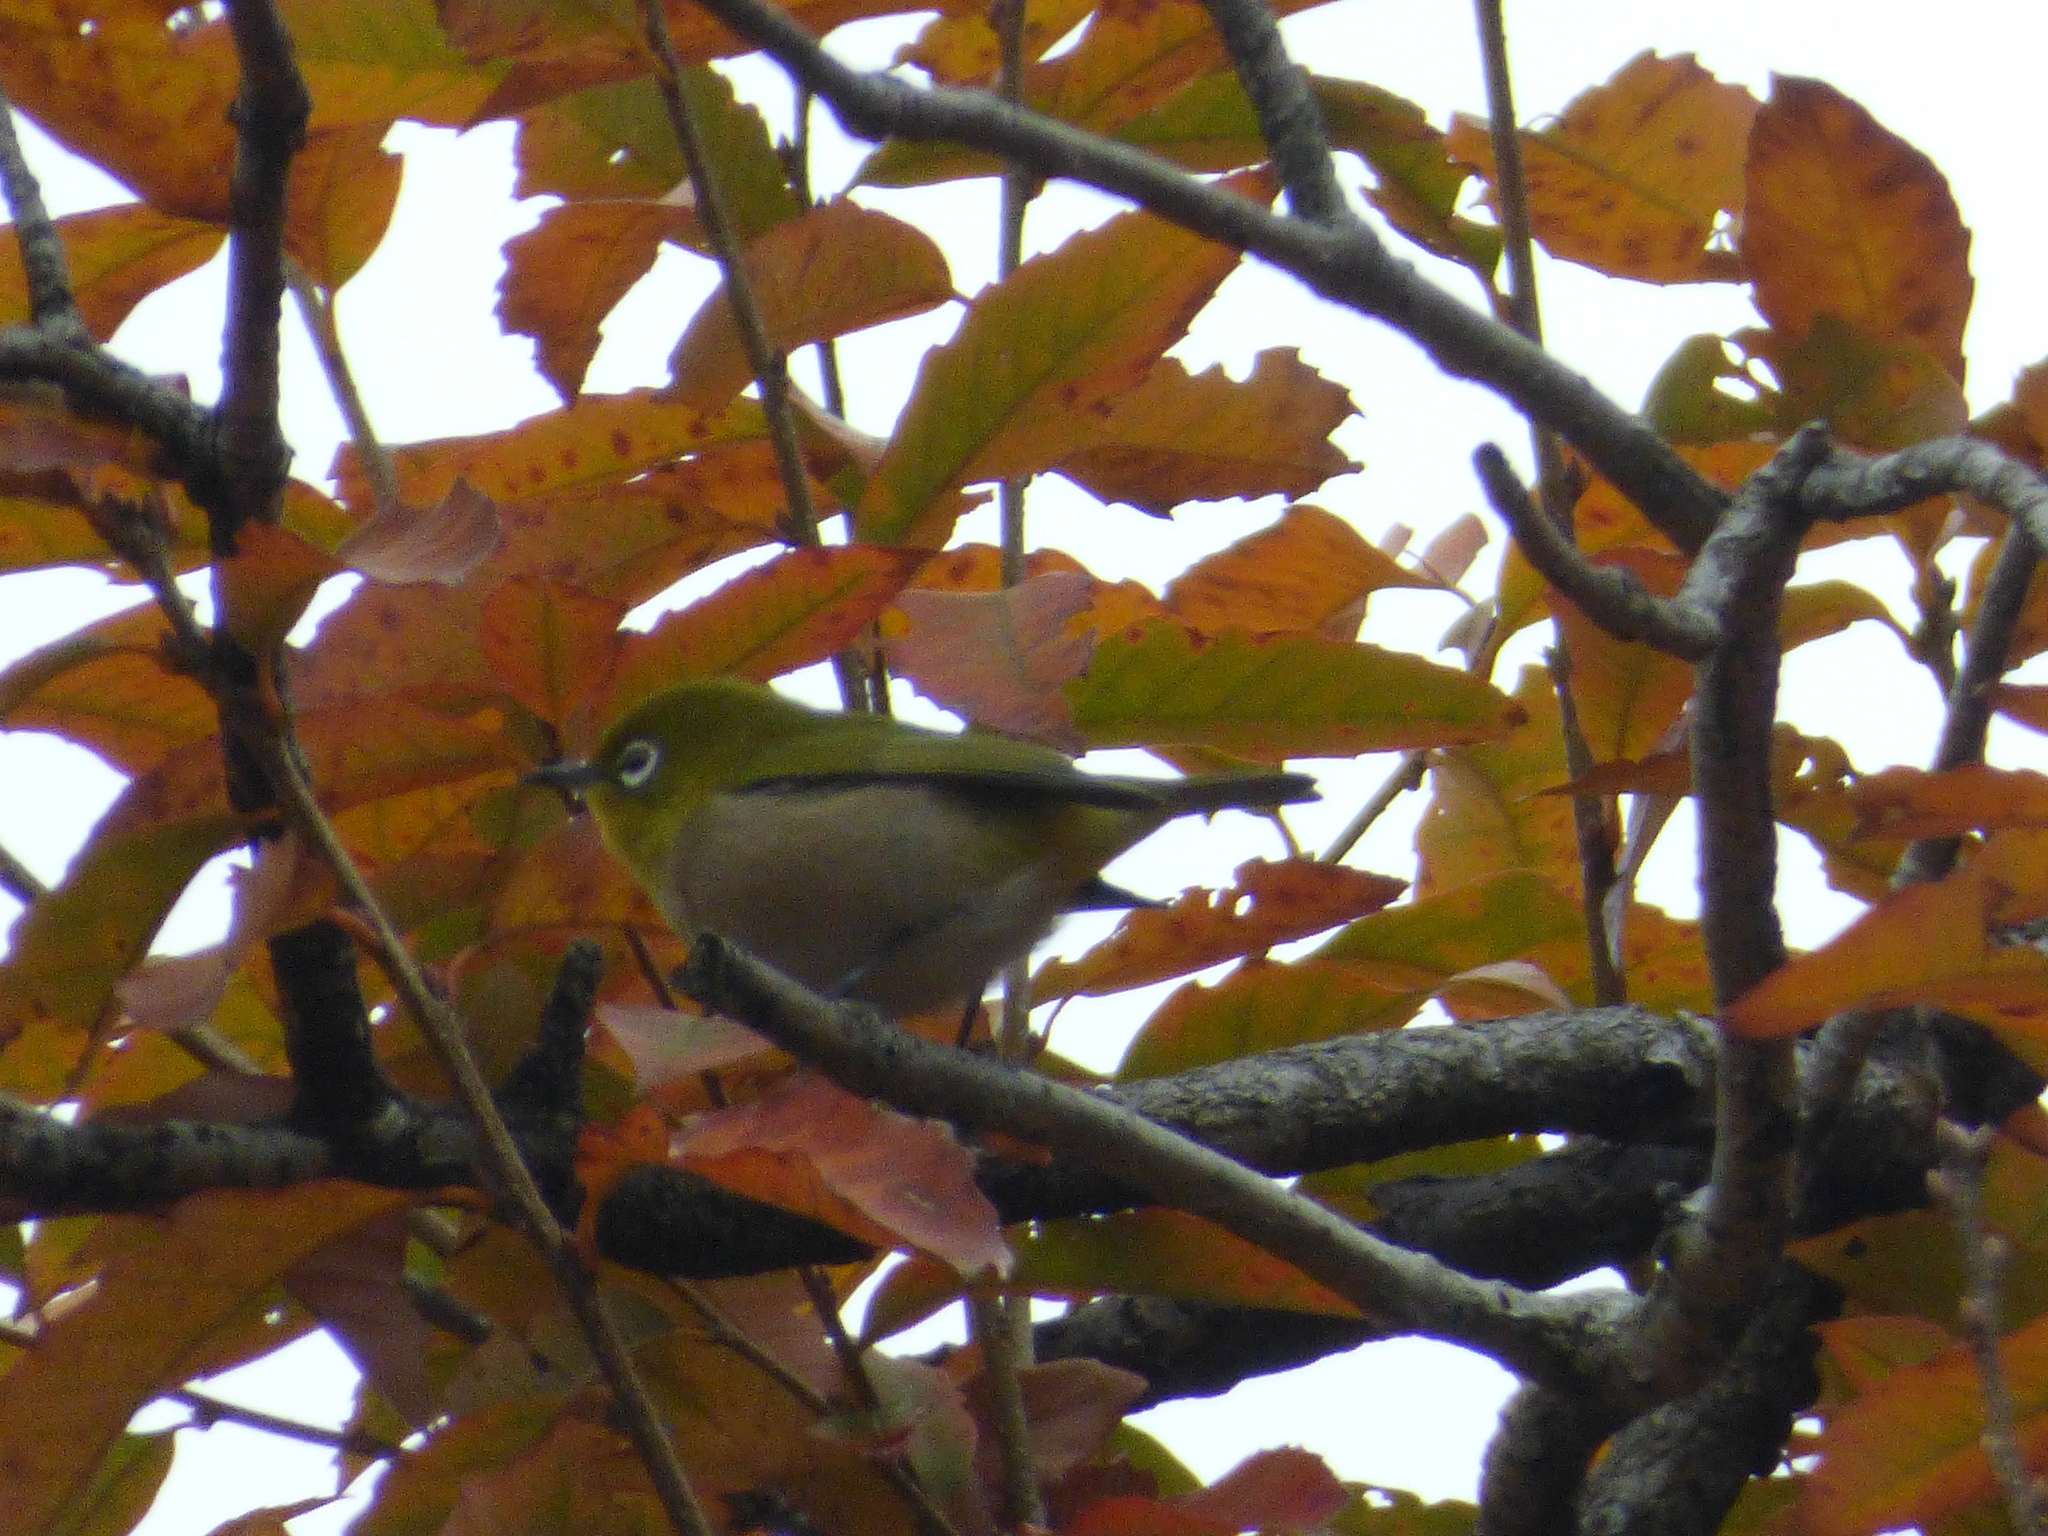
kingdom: Animalia
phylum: Chordata
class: Aves
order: Passeriformes
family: Zosteropidae
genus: Zosterops
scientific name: Zosterops japonicus
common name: Japanese white-eye
